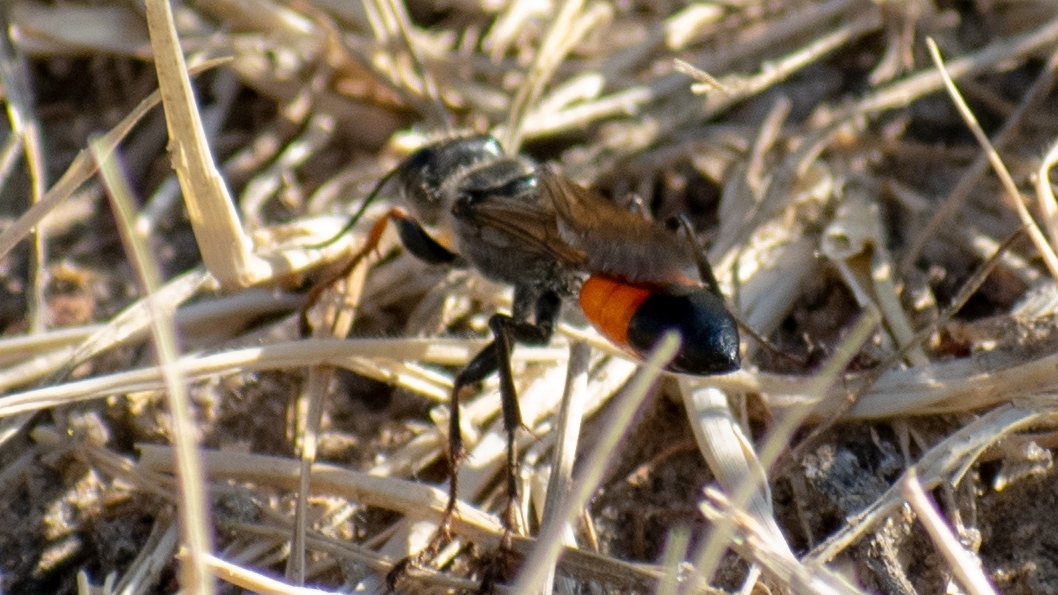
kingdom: Animalia
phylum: Arthropoda
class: Insecta
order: Hymenoptera
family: Sphecidae
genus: Sphex
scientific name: Sphex funerarius
